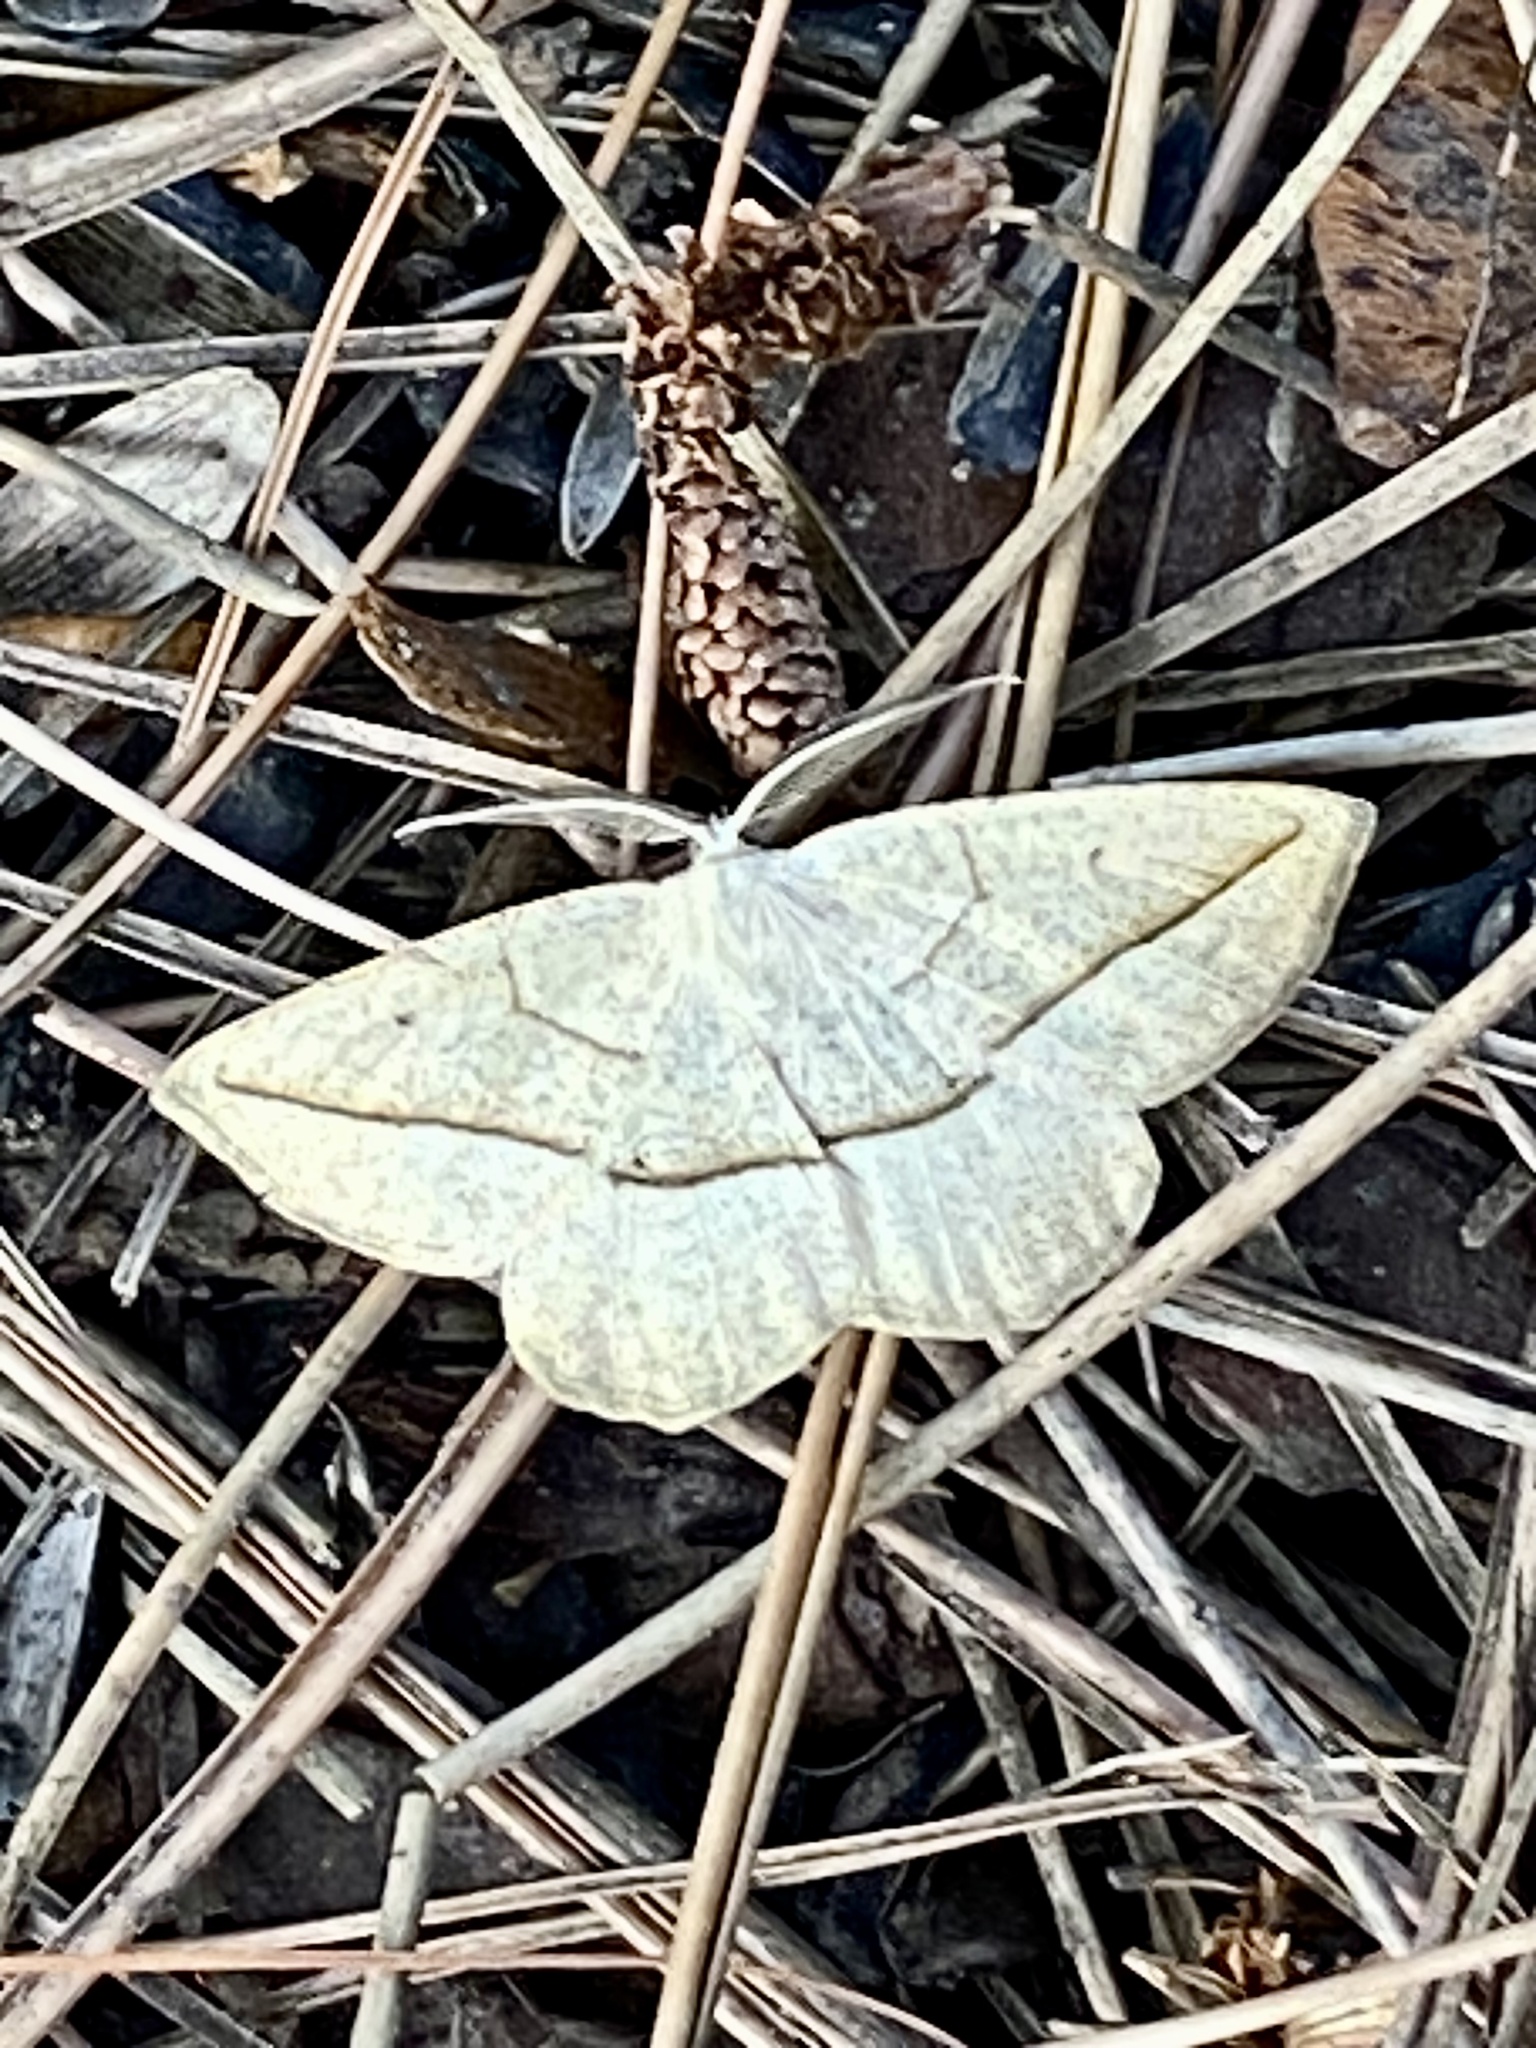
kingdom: Animalia
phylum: Arthropoda
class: Insecta
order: Lepidoptera
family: Geometridae
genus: Eusarca
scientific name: Eusarca confusaria
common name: Confused eusarca
